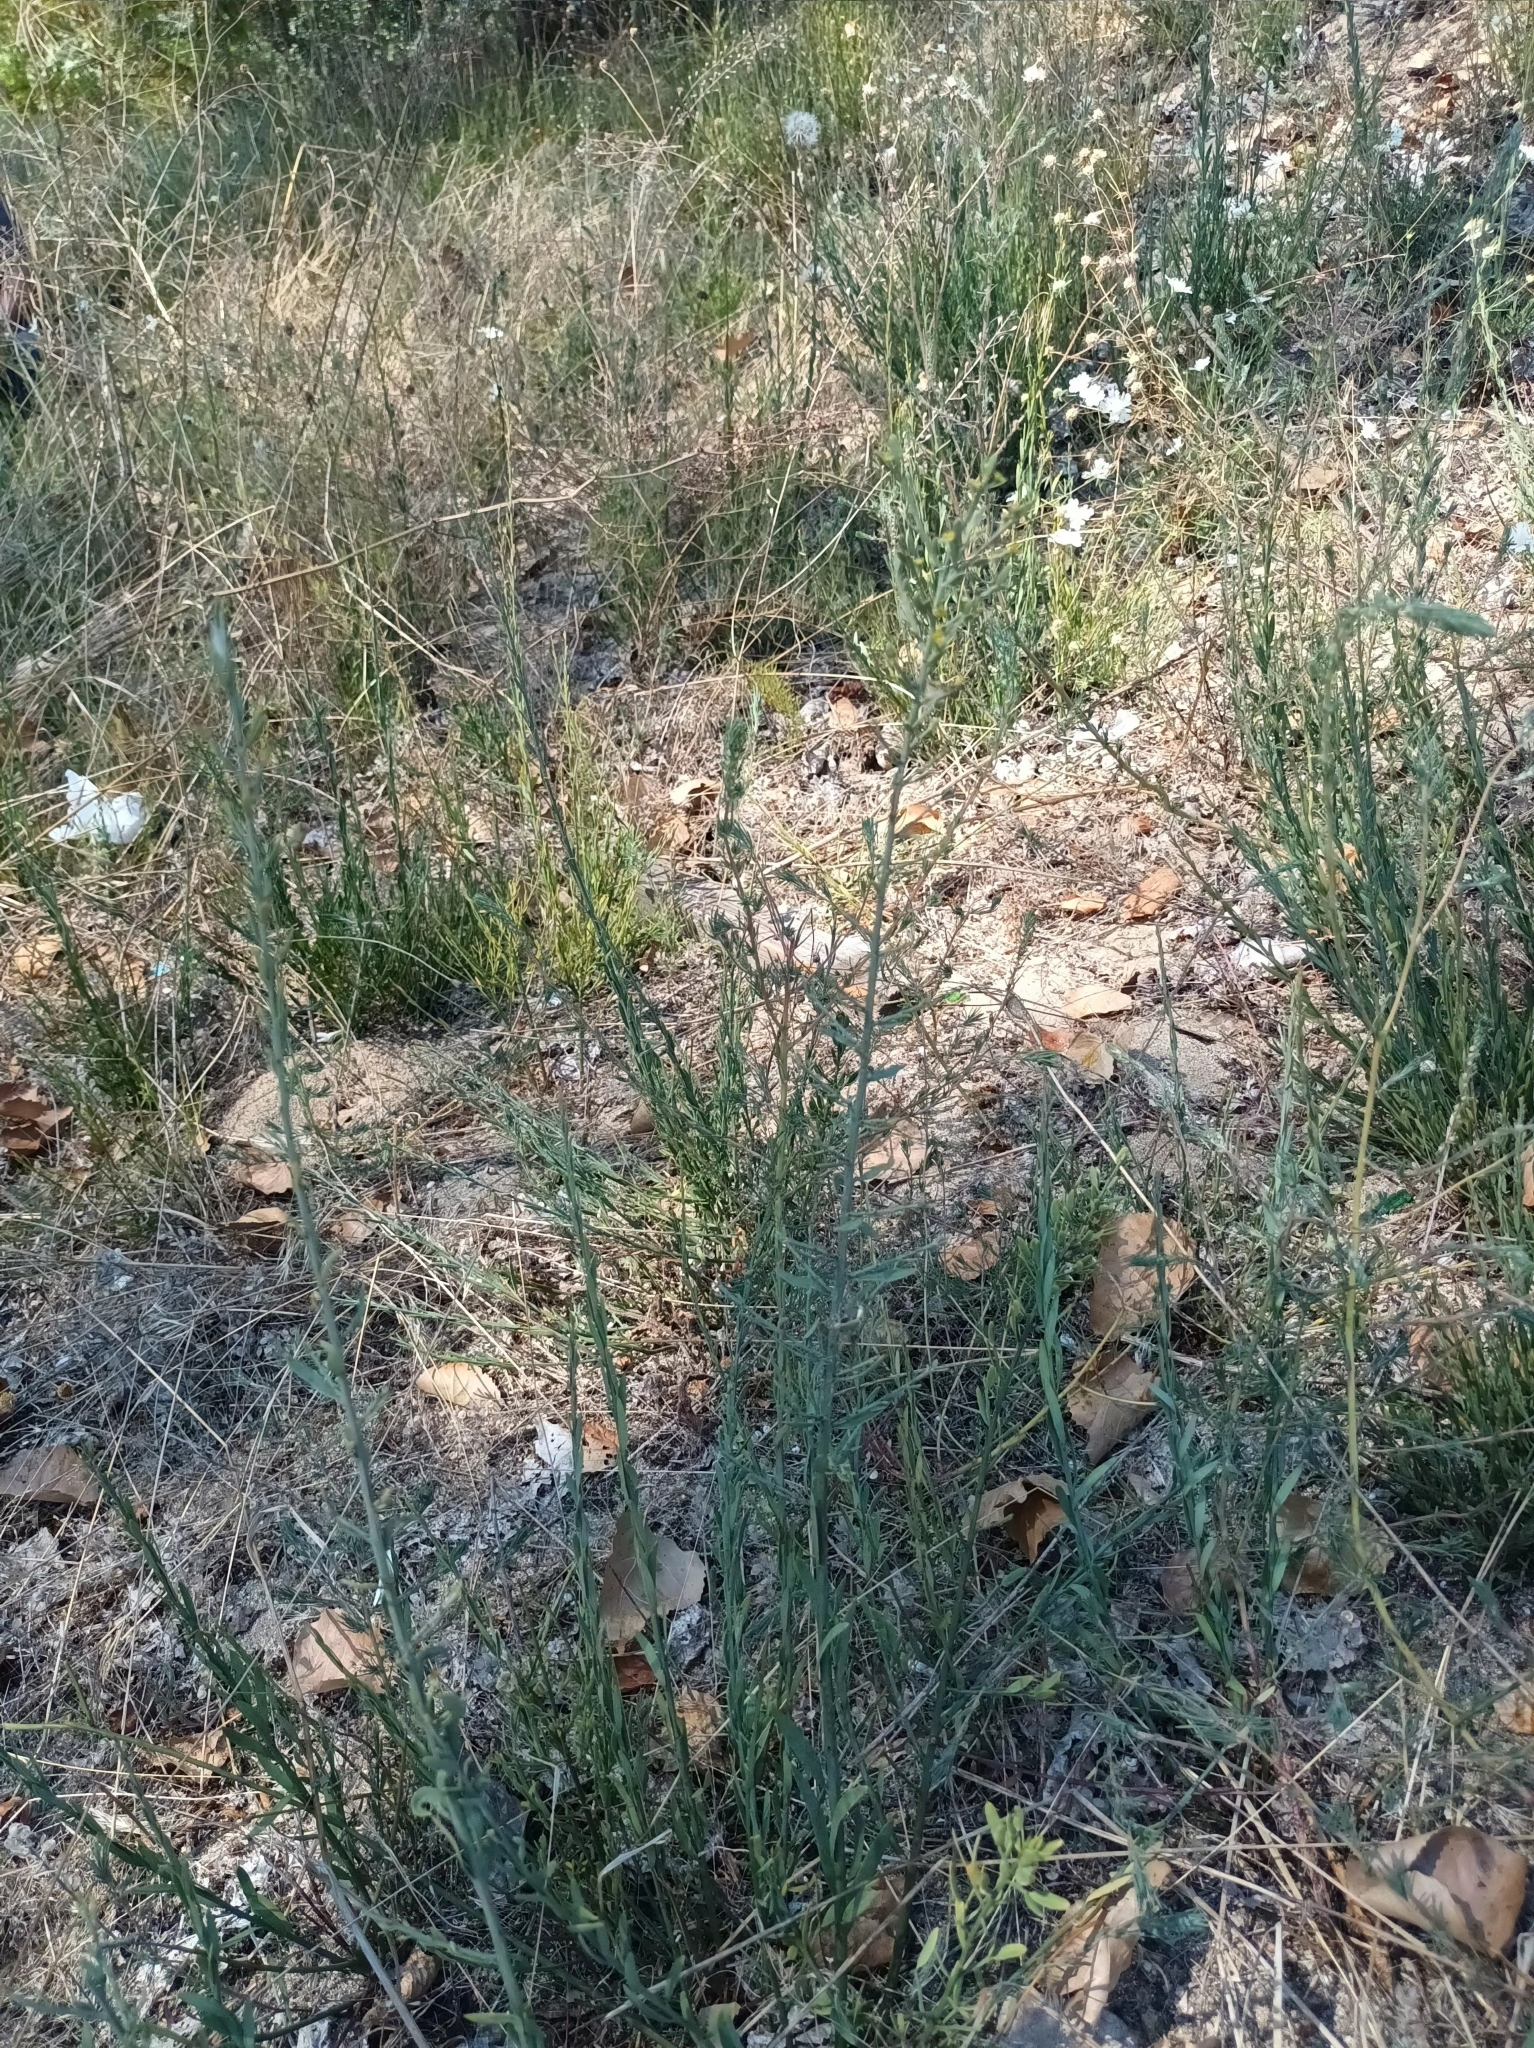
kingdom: Plantae
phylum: Tracheophyta
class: Magnoliopsida
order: Santalales
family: Santalaceae
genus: Osyris
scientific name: Osyris alba
